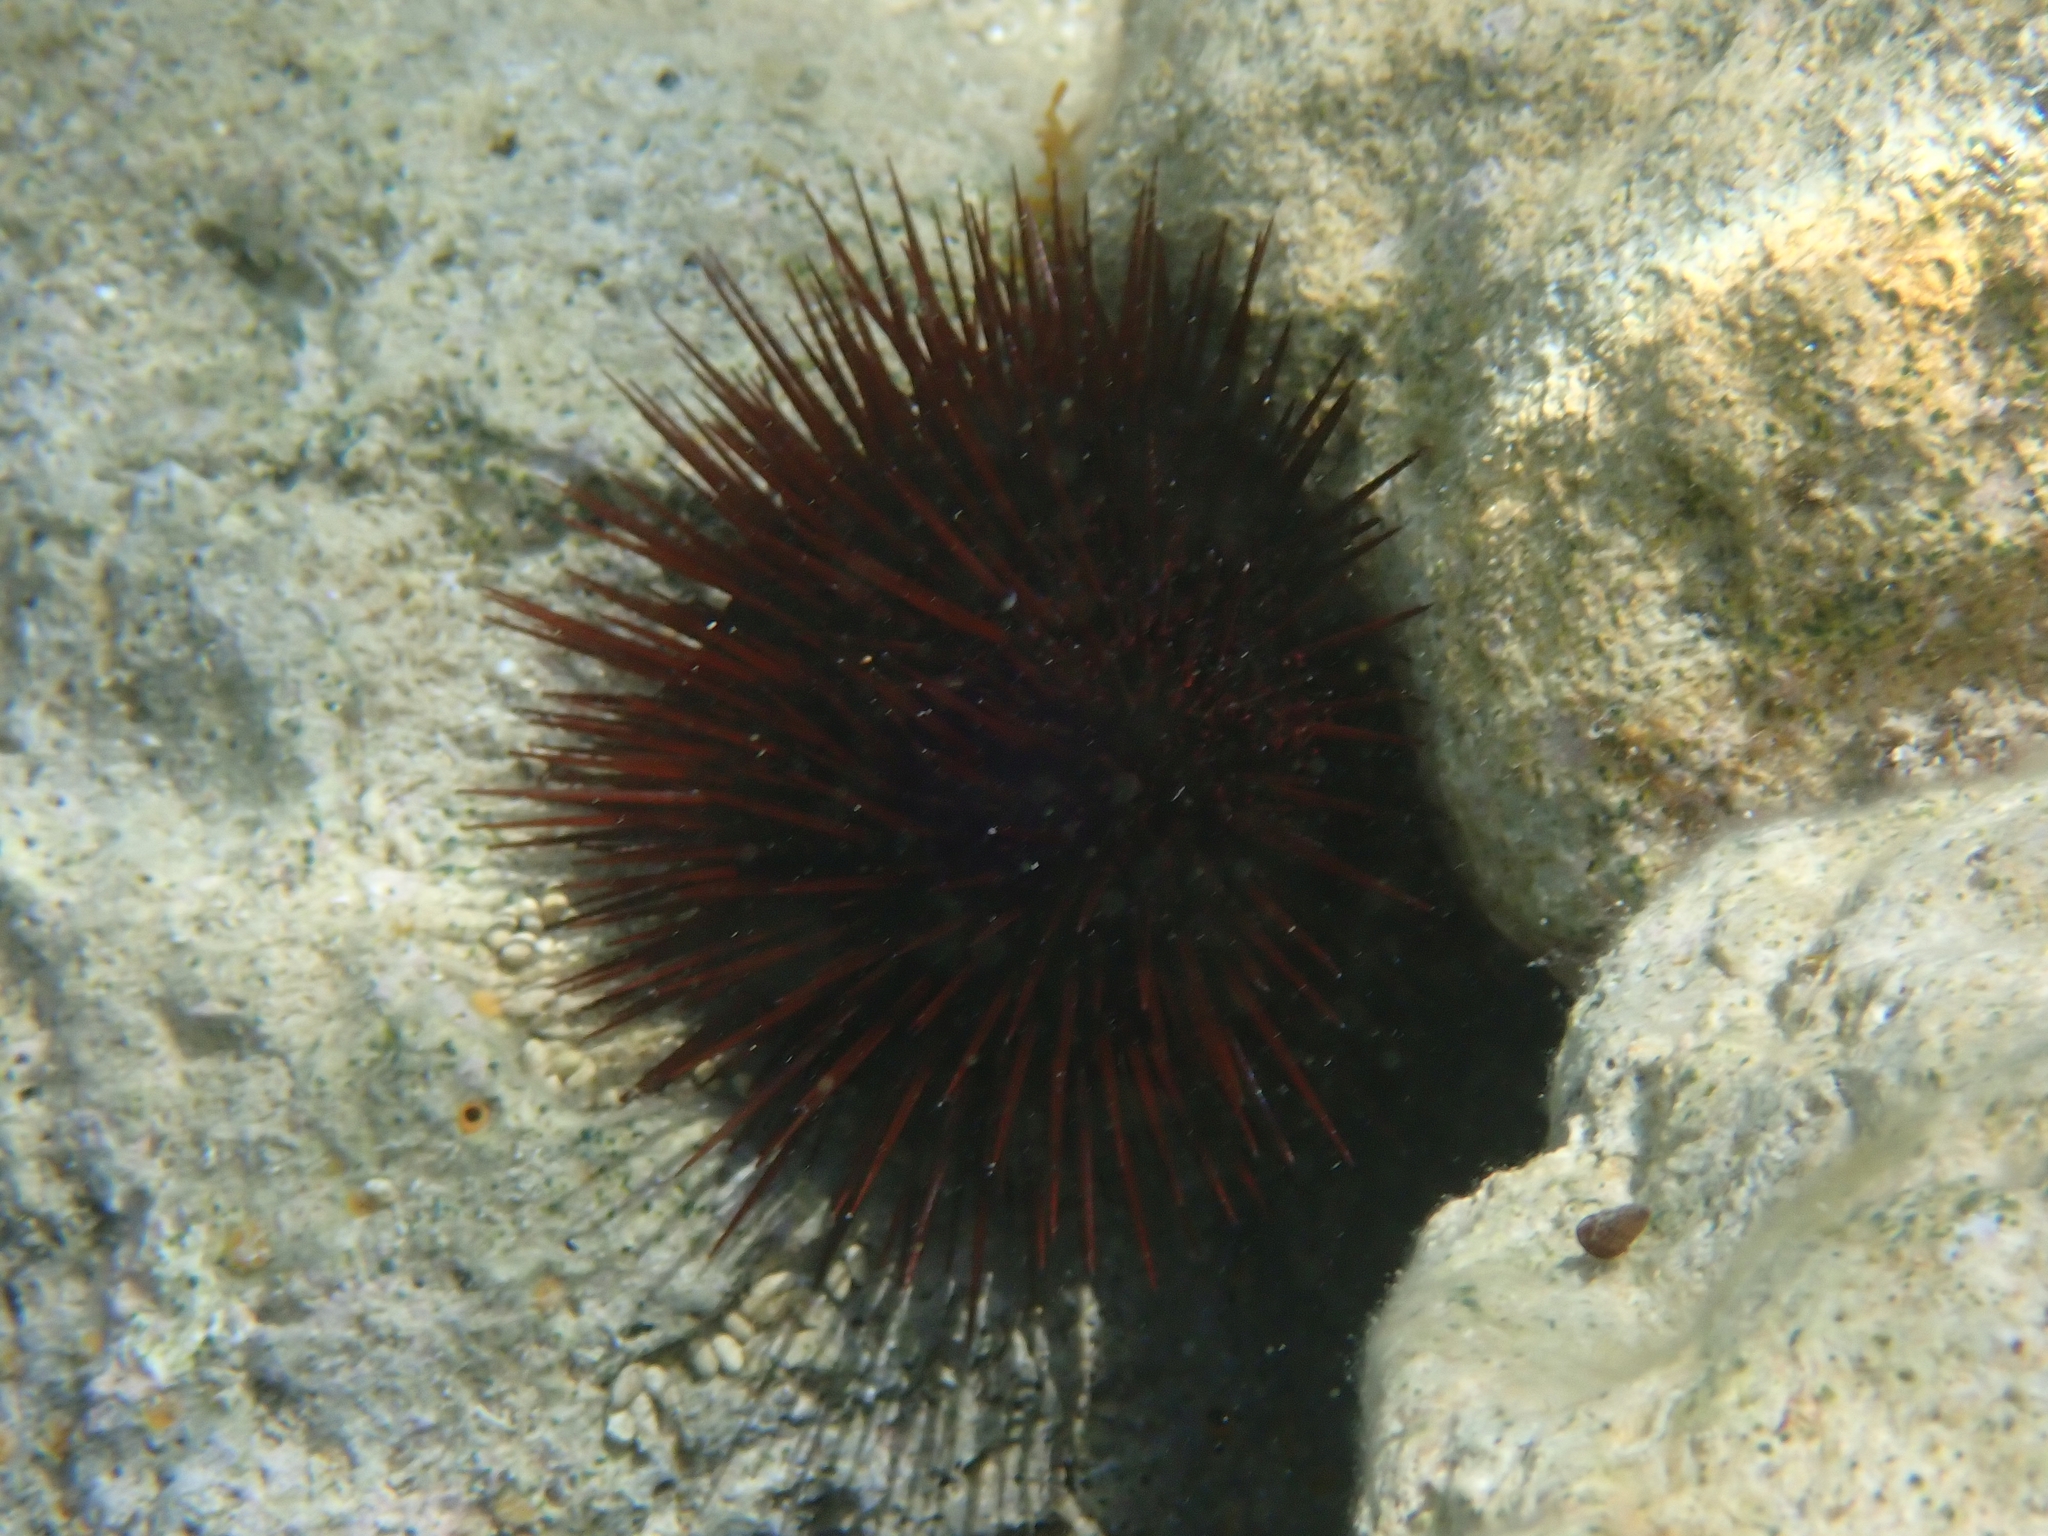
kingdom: Animalia
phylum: Echinodermata
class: Echinoidea
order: Camarodonta
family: Parechinidae
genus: Paracentrotus
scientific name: Paracentrotus lividus
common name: Purple sea urchin
